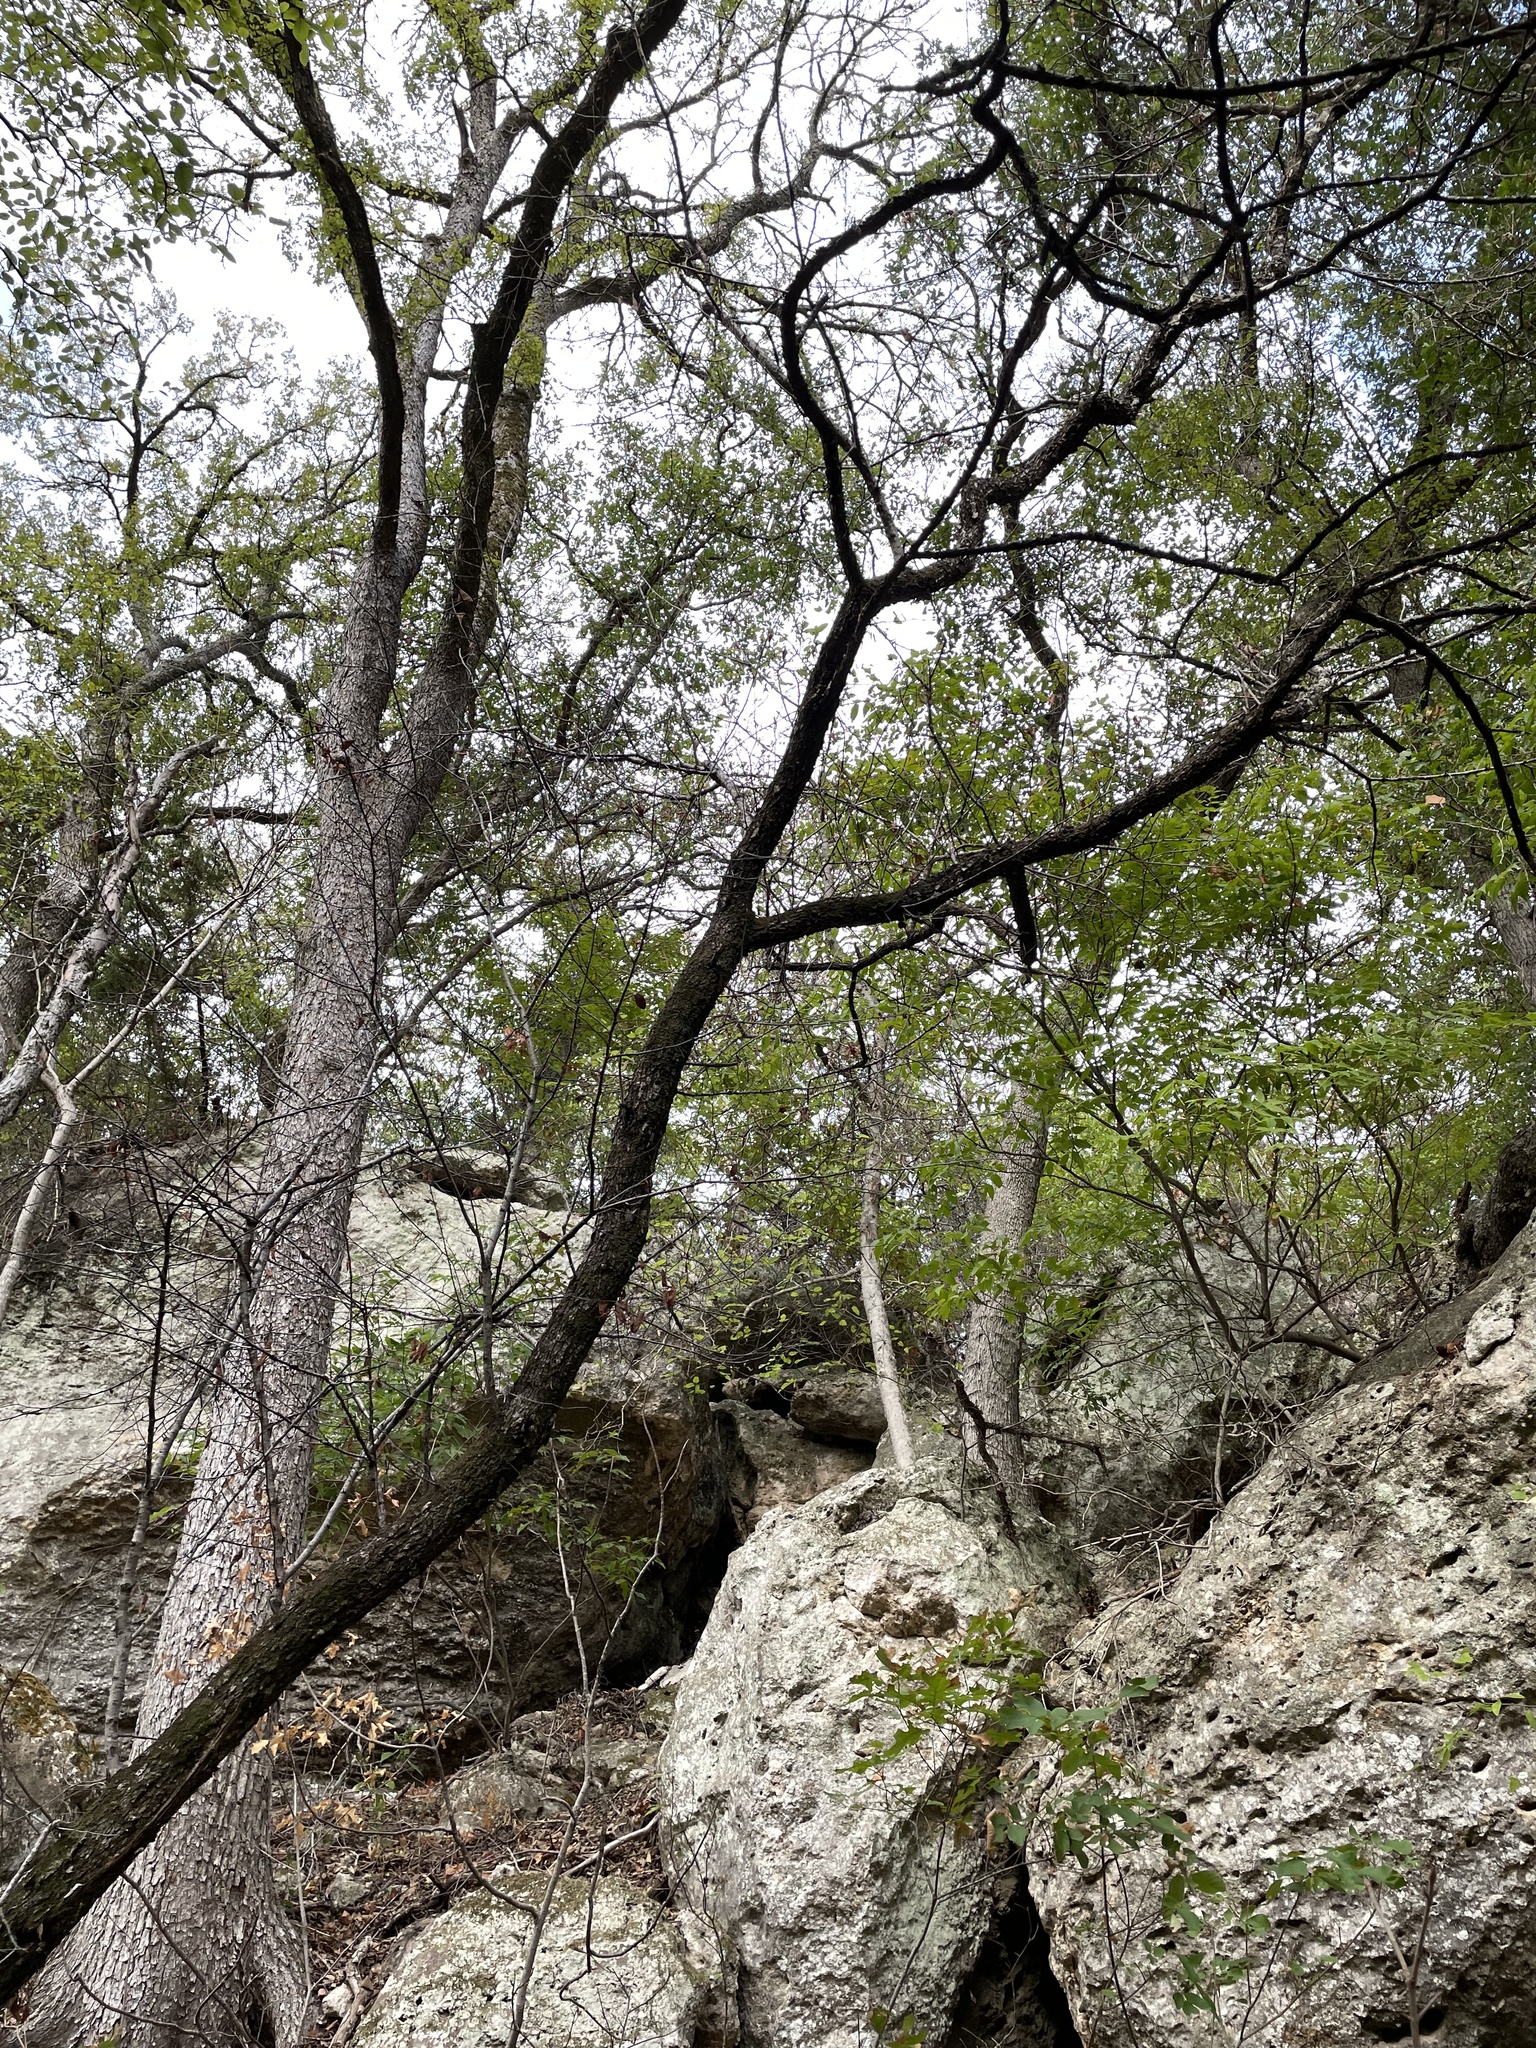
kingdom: Plantae
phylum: Tracheophyta
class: Magnoliopsida
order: Rosales
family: Rosaceae
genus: Prunus
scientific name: Prunus mexicana
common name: Mexican plum
